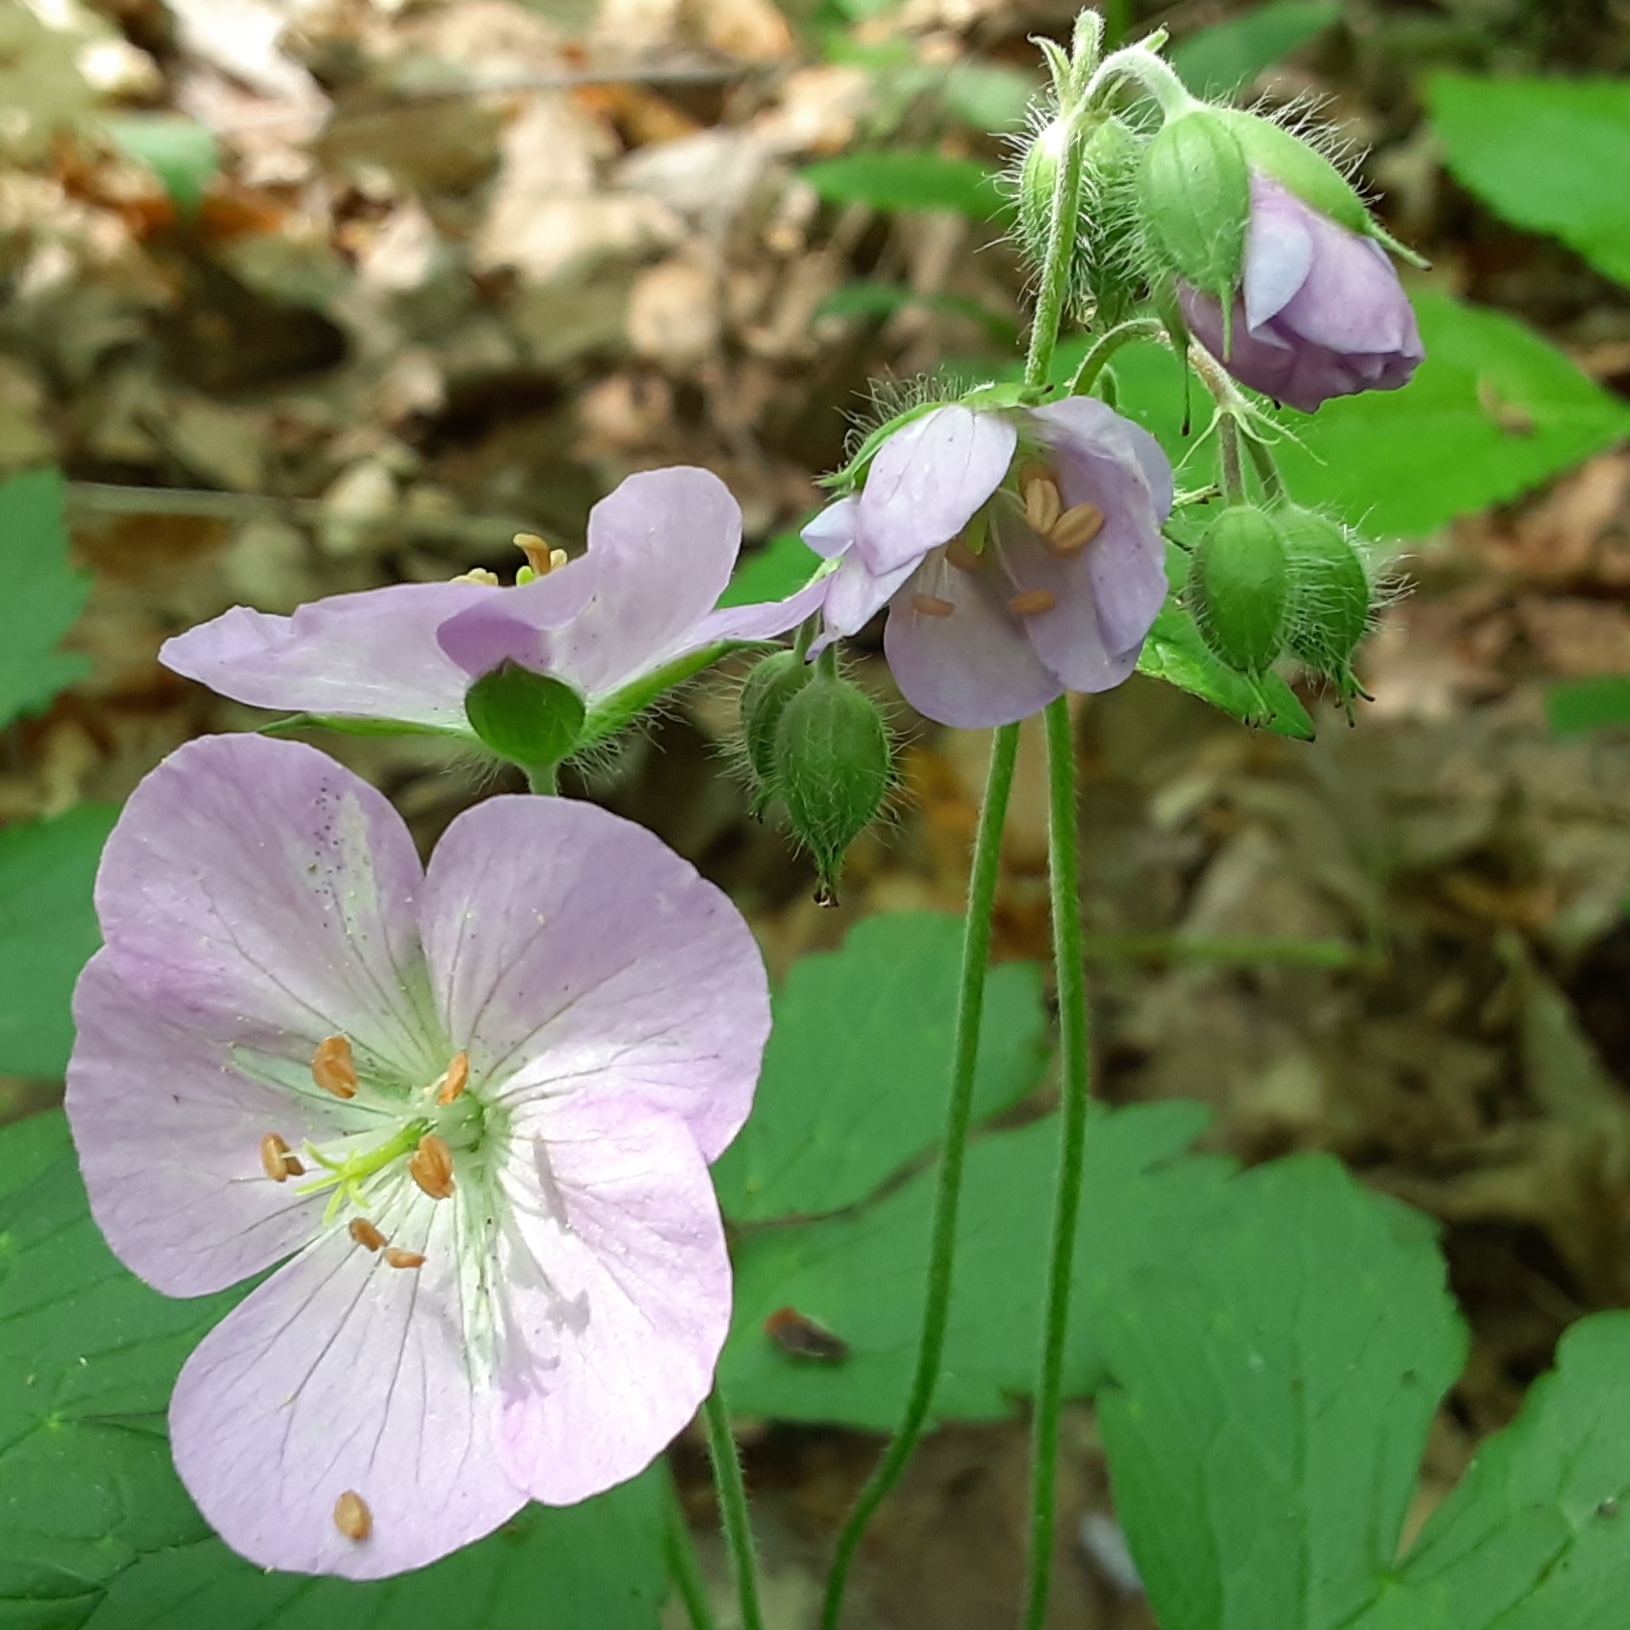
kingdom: Plantae
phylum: Tracheophyta
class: Magnoliopsida
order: Geraniales
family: Geraniaceae
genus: Geranium
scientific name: Geranium maculatum
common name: Spotted geranium
